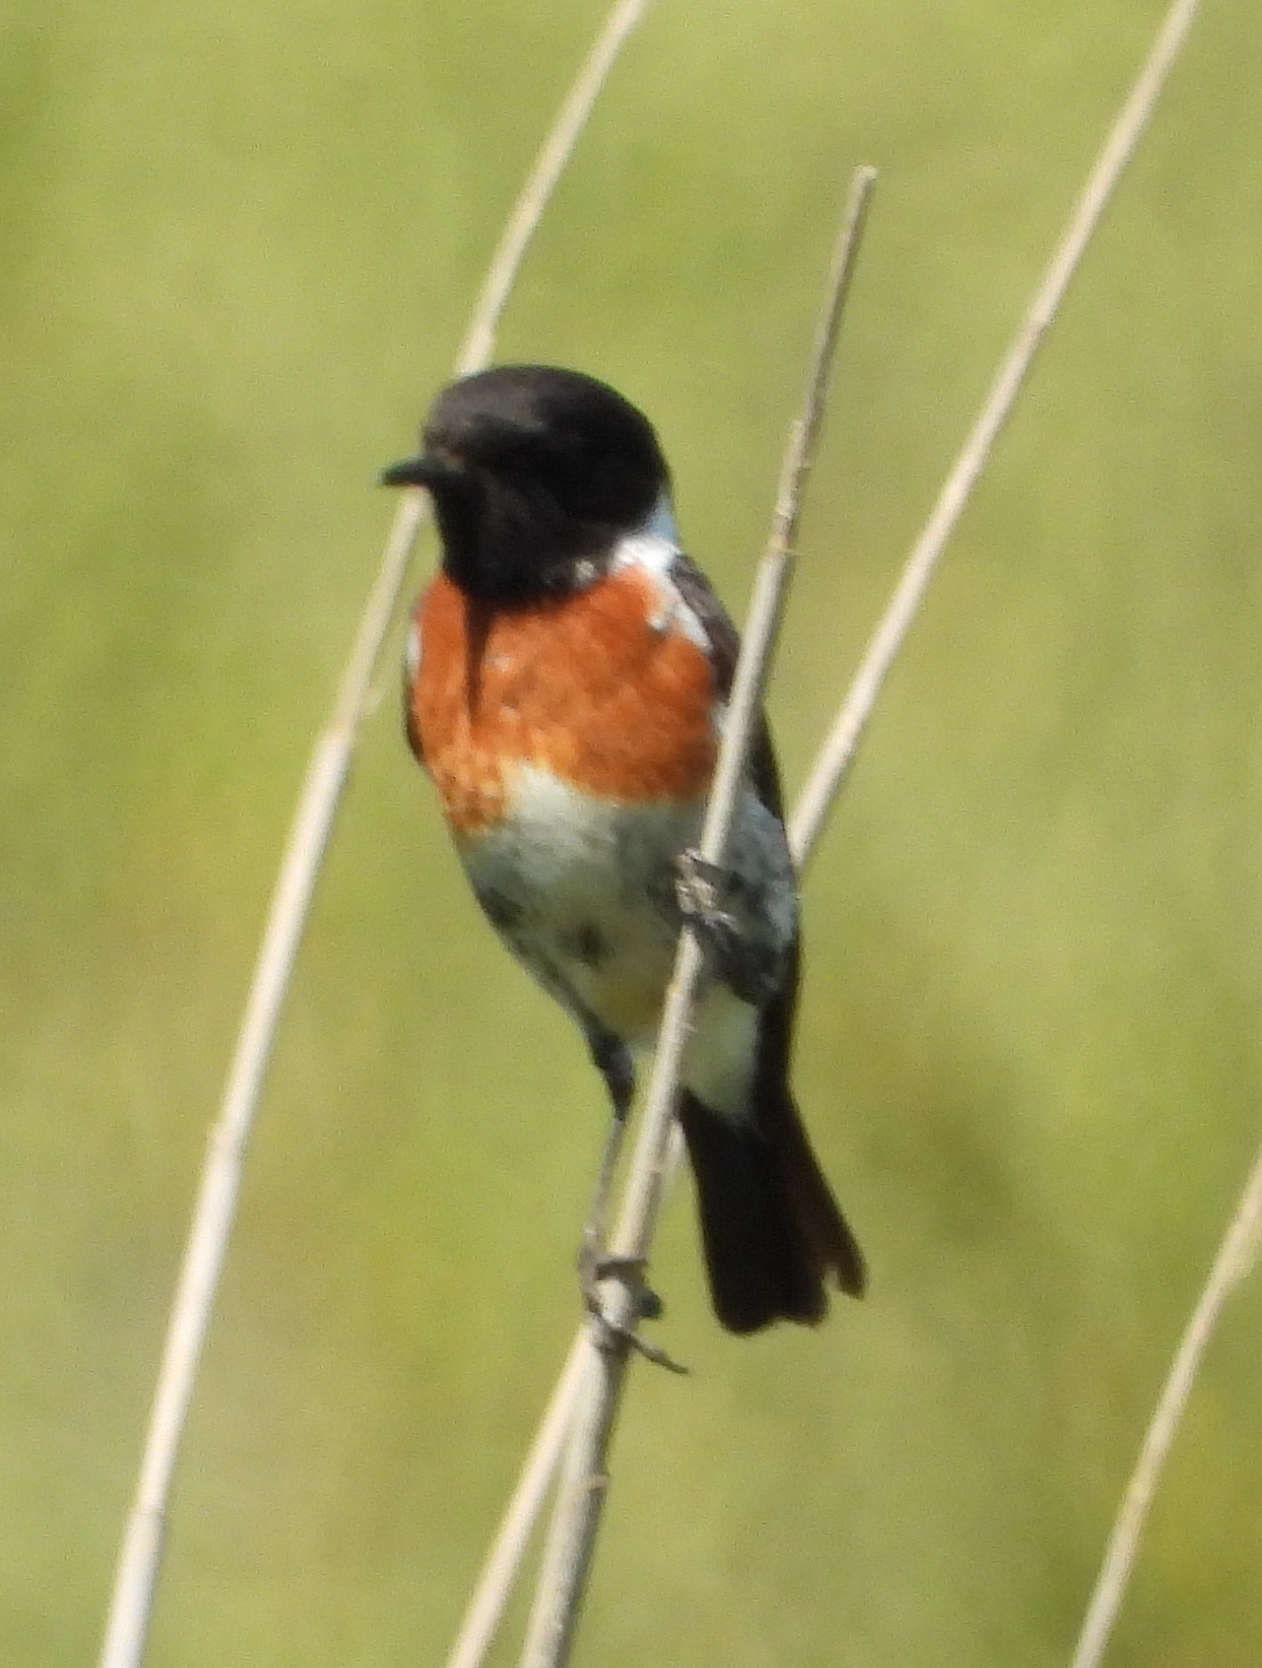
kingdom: Animalia
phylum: Chordata
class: Aves
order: Passeriformes
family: Muscicapidae
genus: Saxicola
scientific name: Saxicola torquatus
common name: African stonechat
